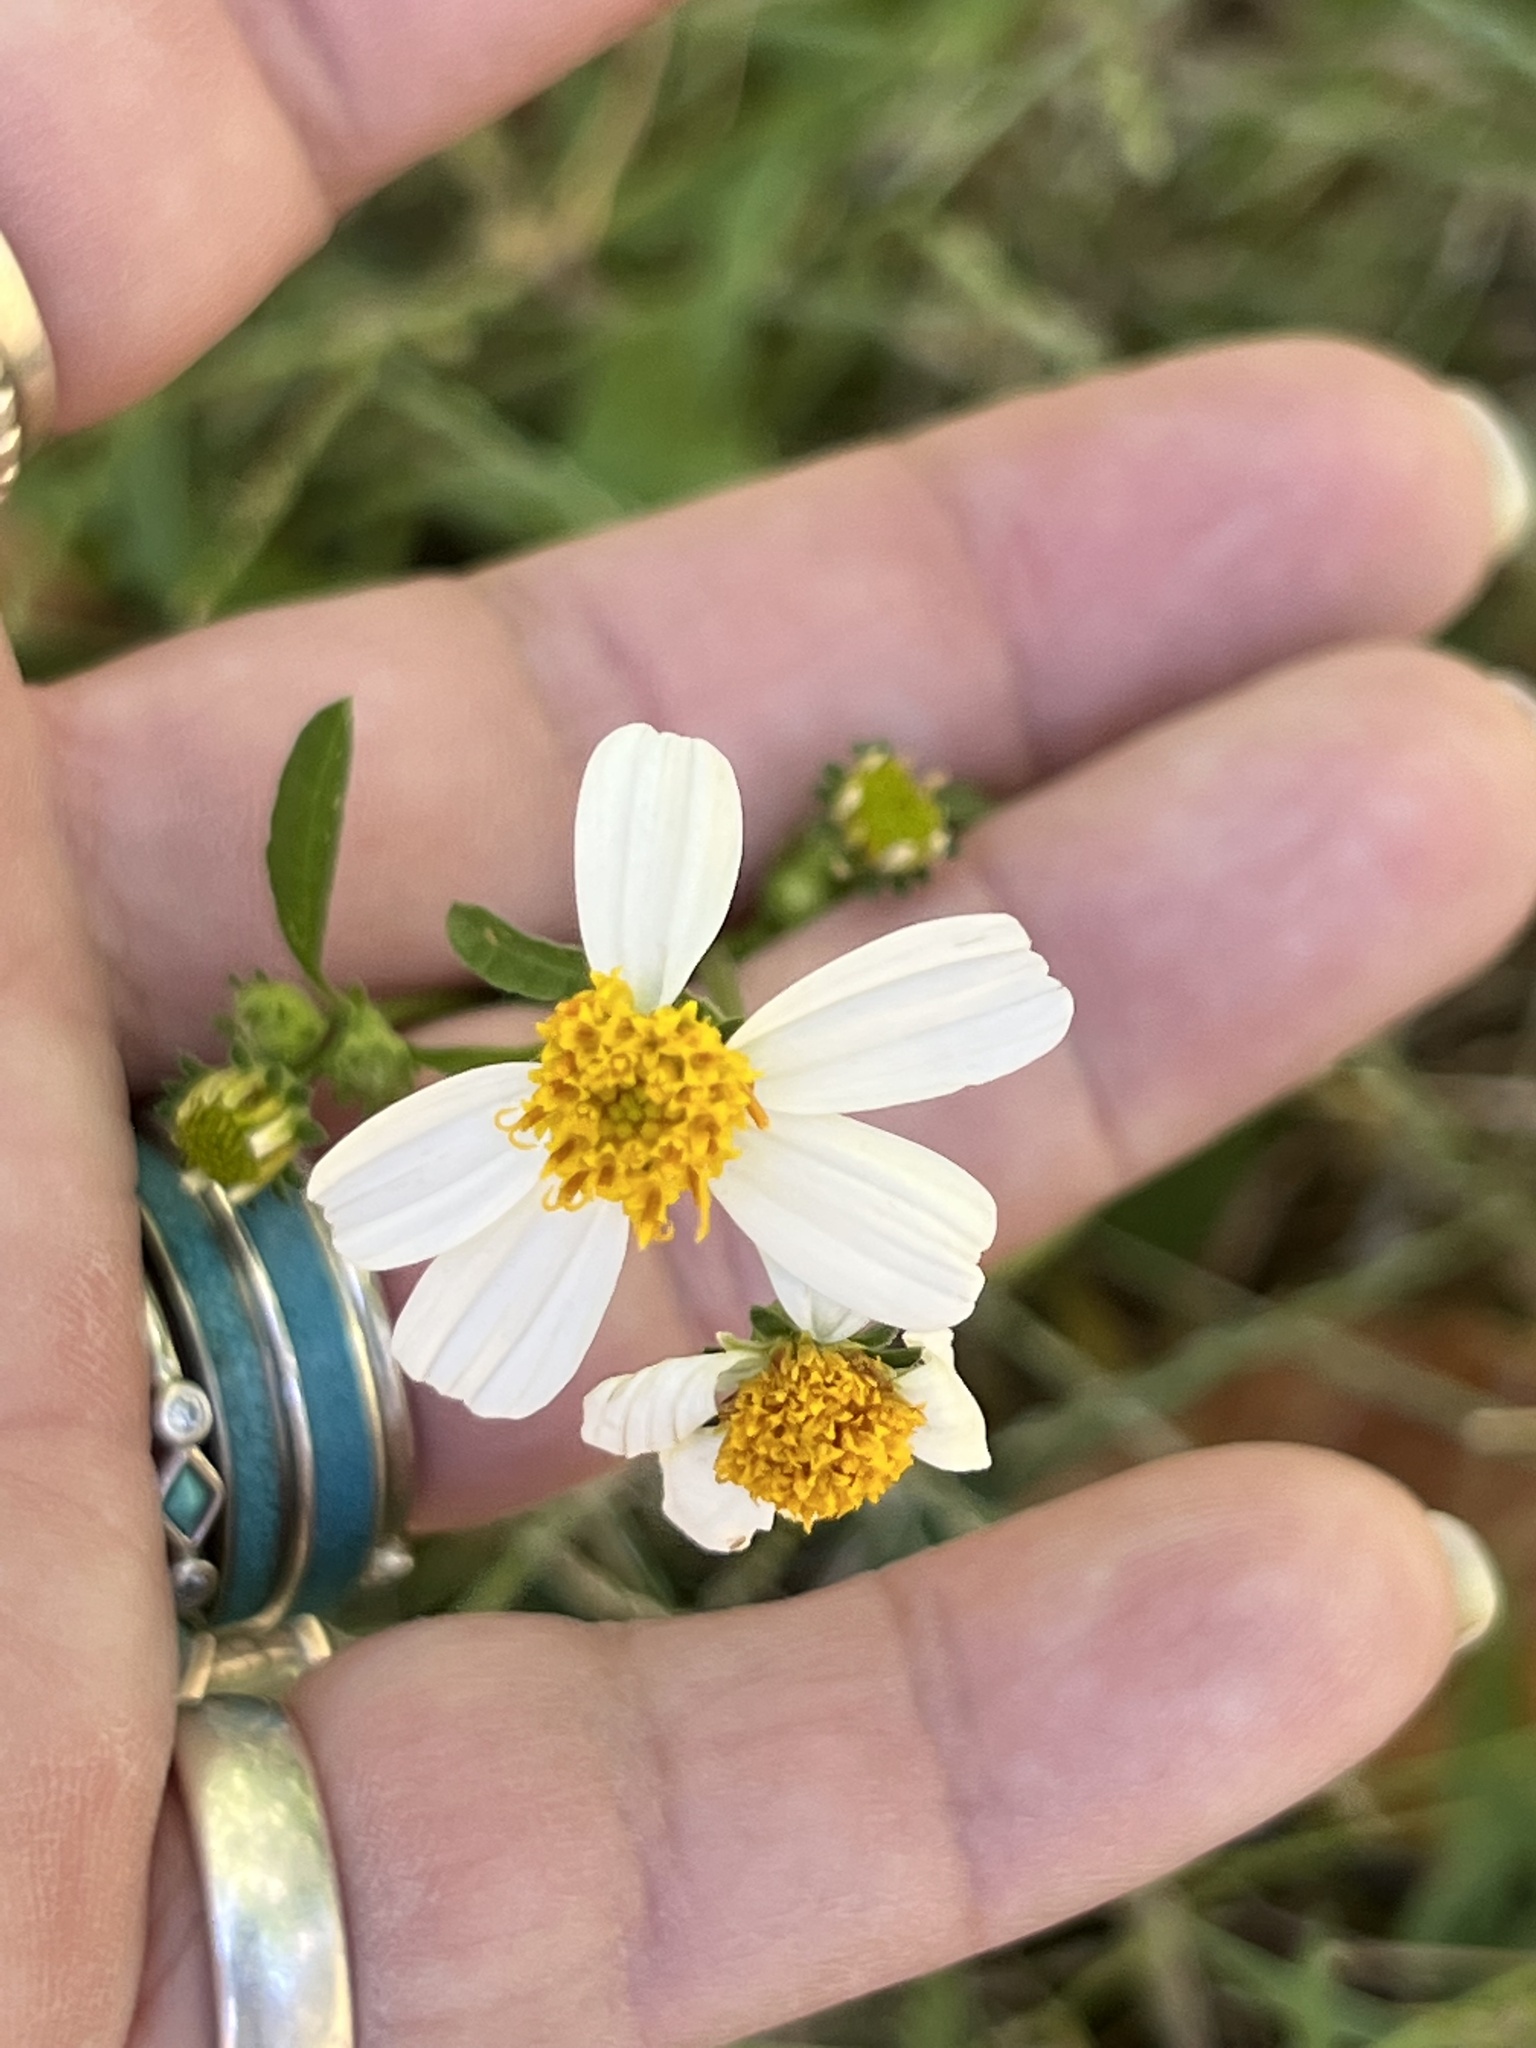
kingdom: Plantae
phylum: Tracheophyta
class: Magnoliopsida
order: Asterales
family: Asteraceae
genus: Bidens
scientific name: Bidens alba
